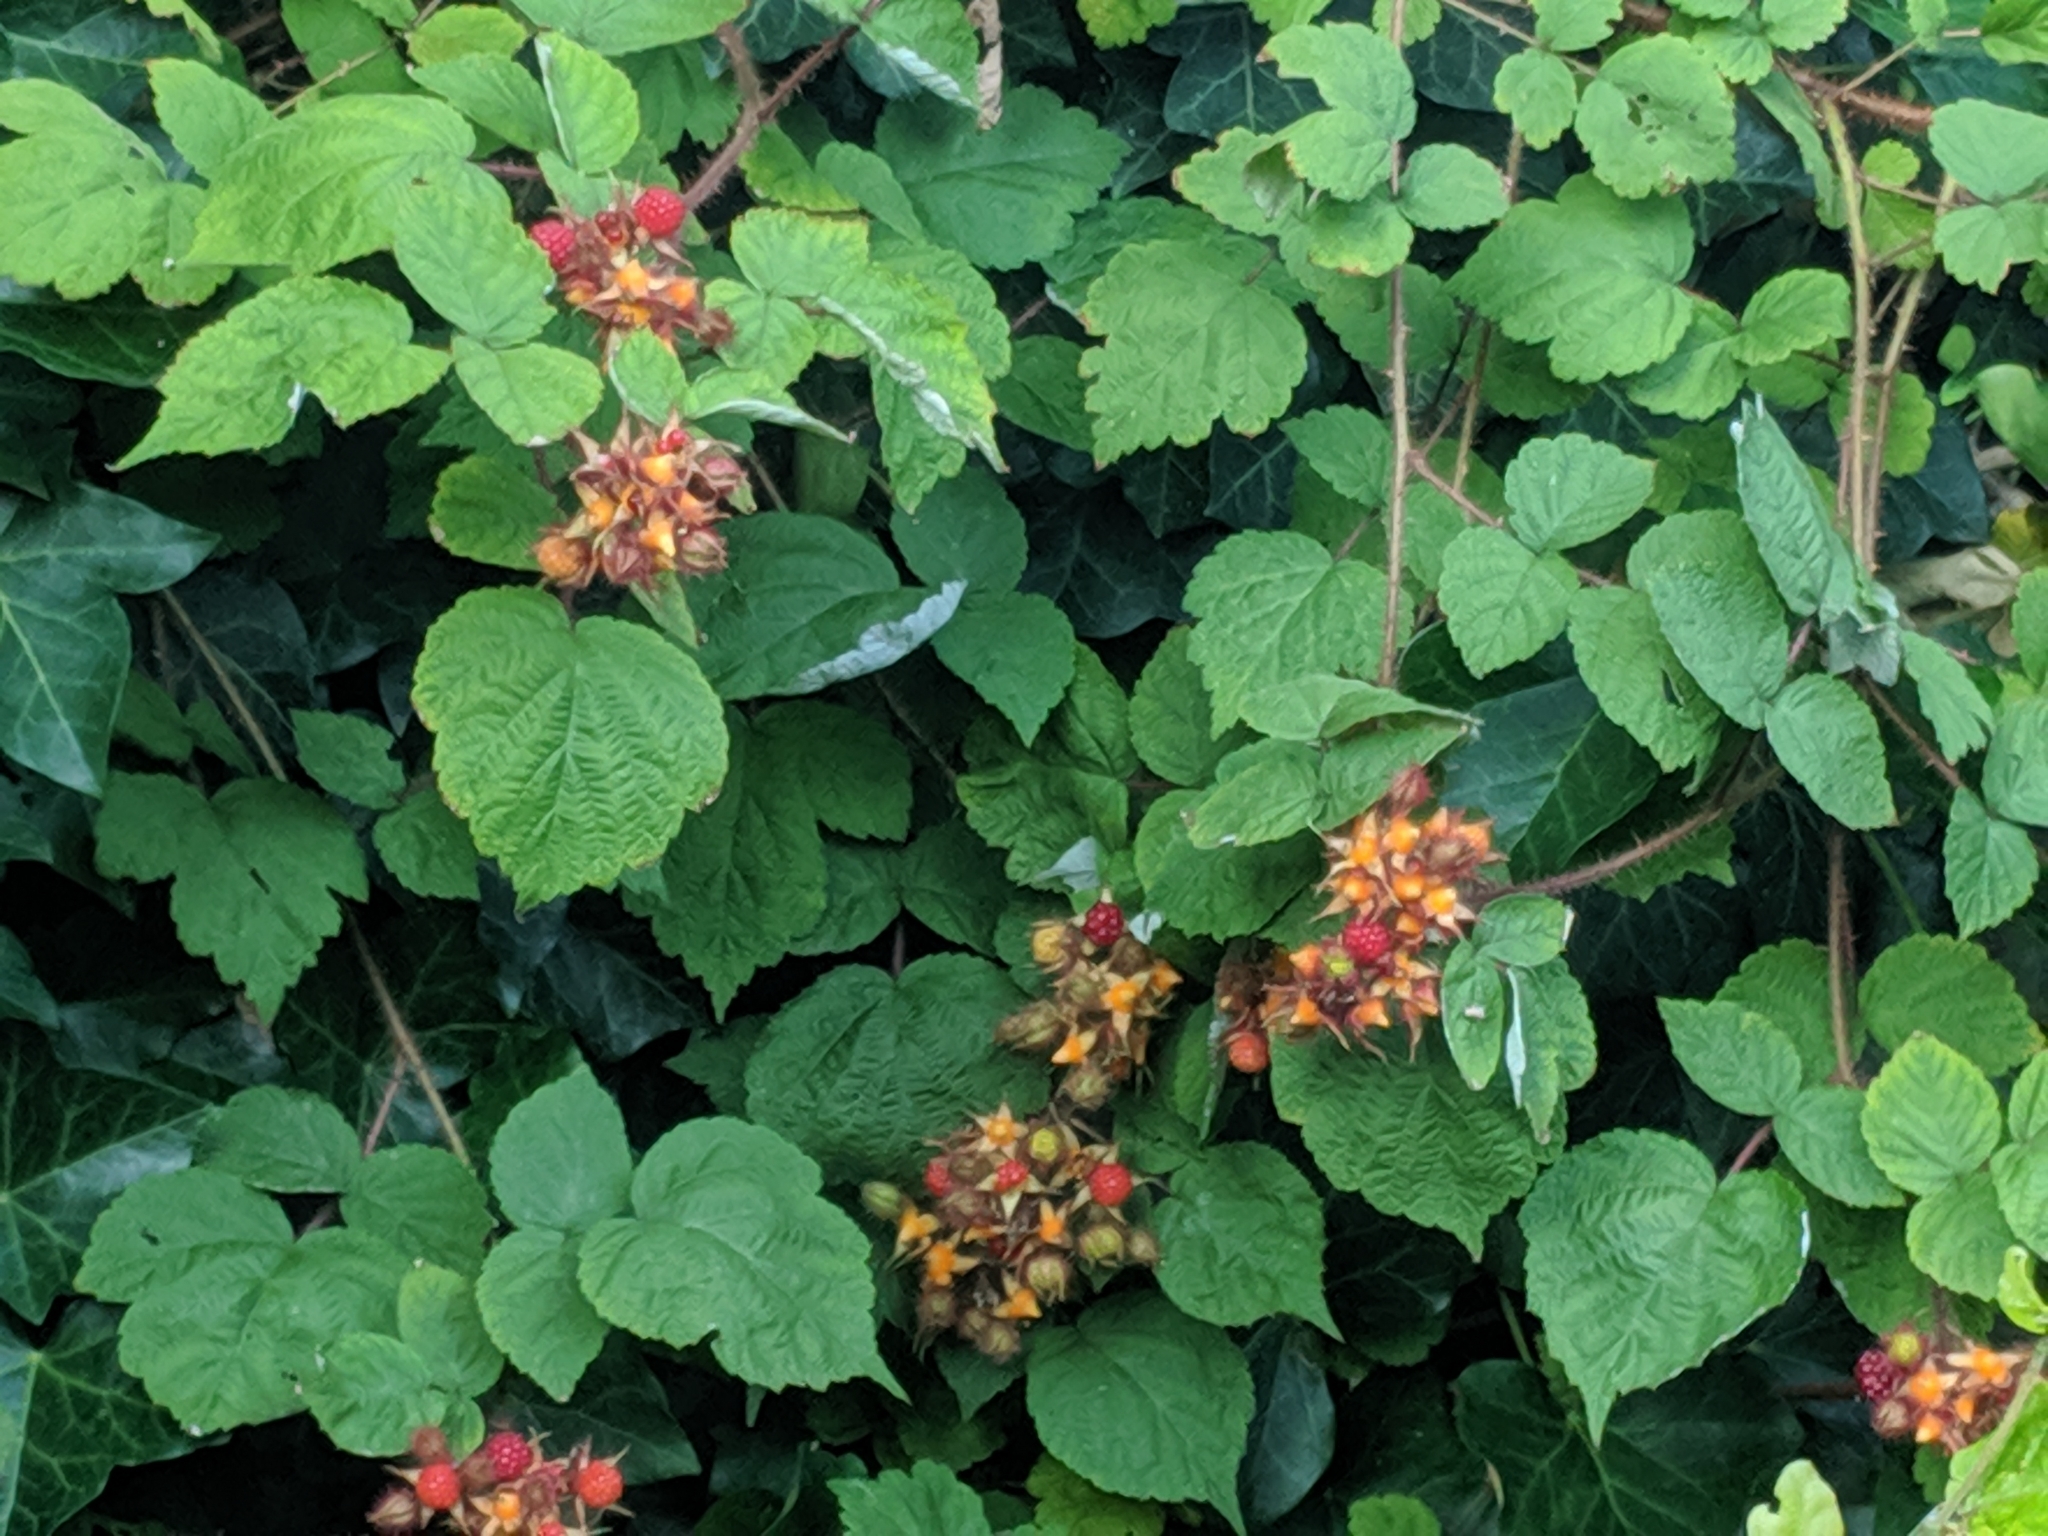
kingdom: Plantae
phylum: Tracheophyta
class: Magnoliopsida
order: Rosales
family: Rosaceae
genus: Rubus
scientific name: Rubus phoenicolasius
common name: Japanese wineberry
